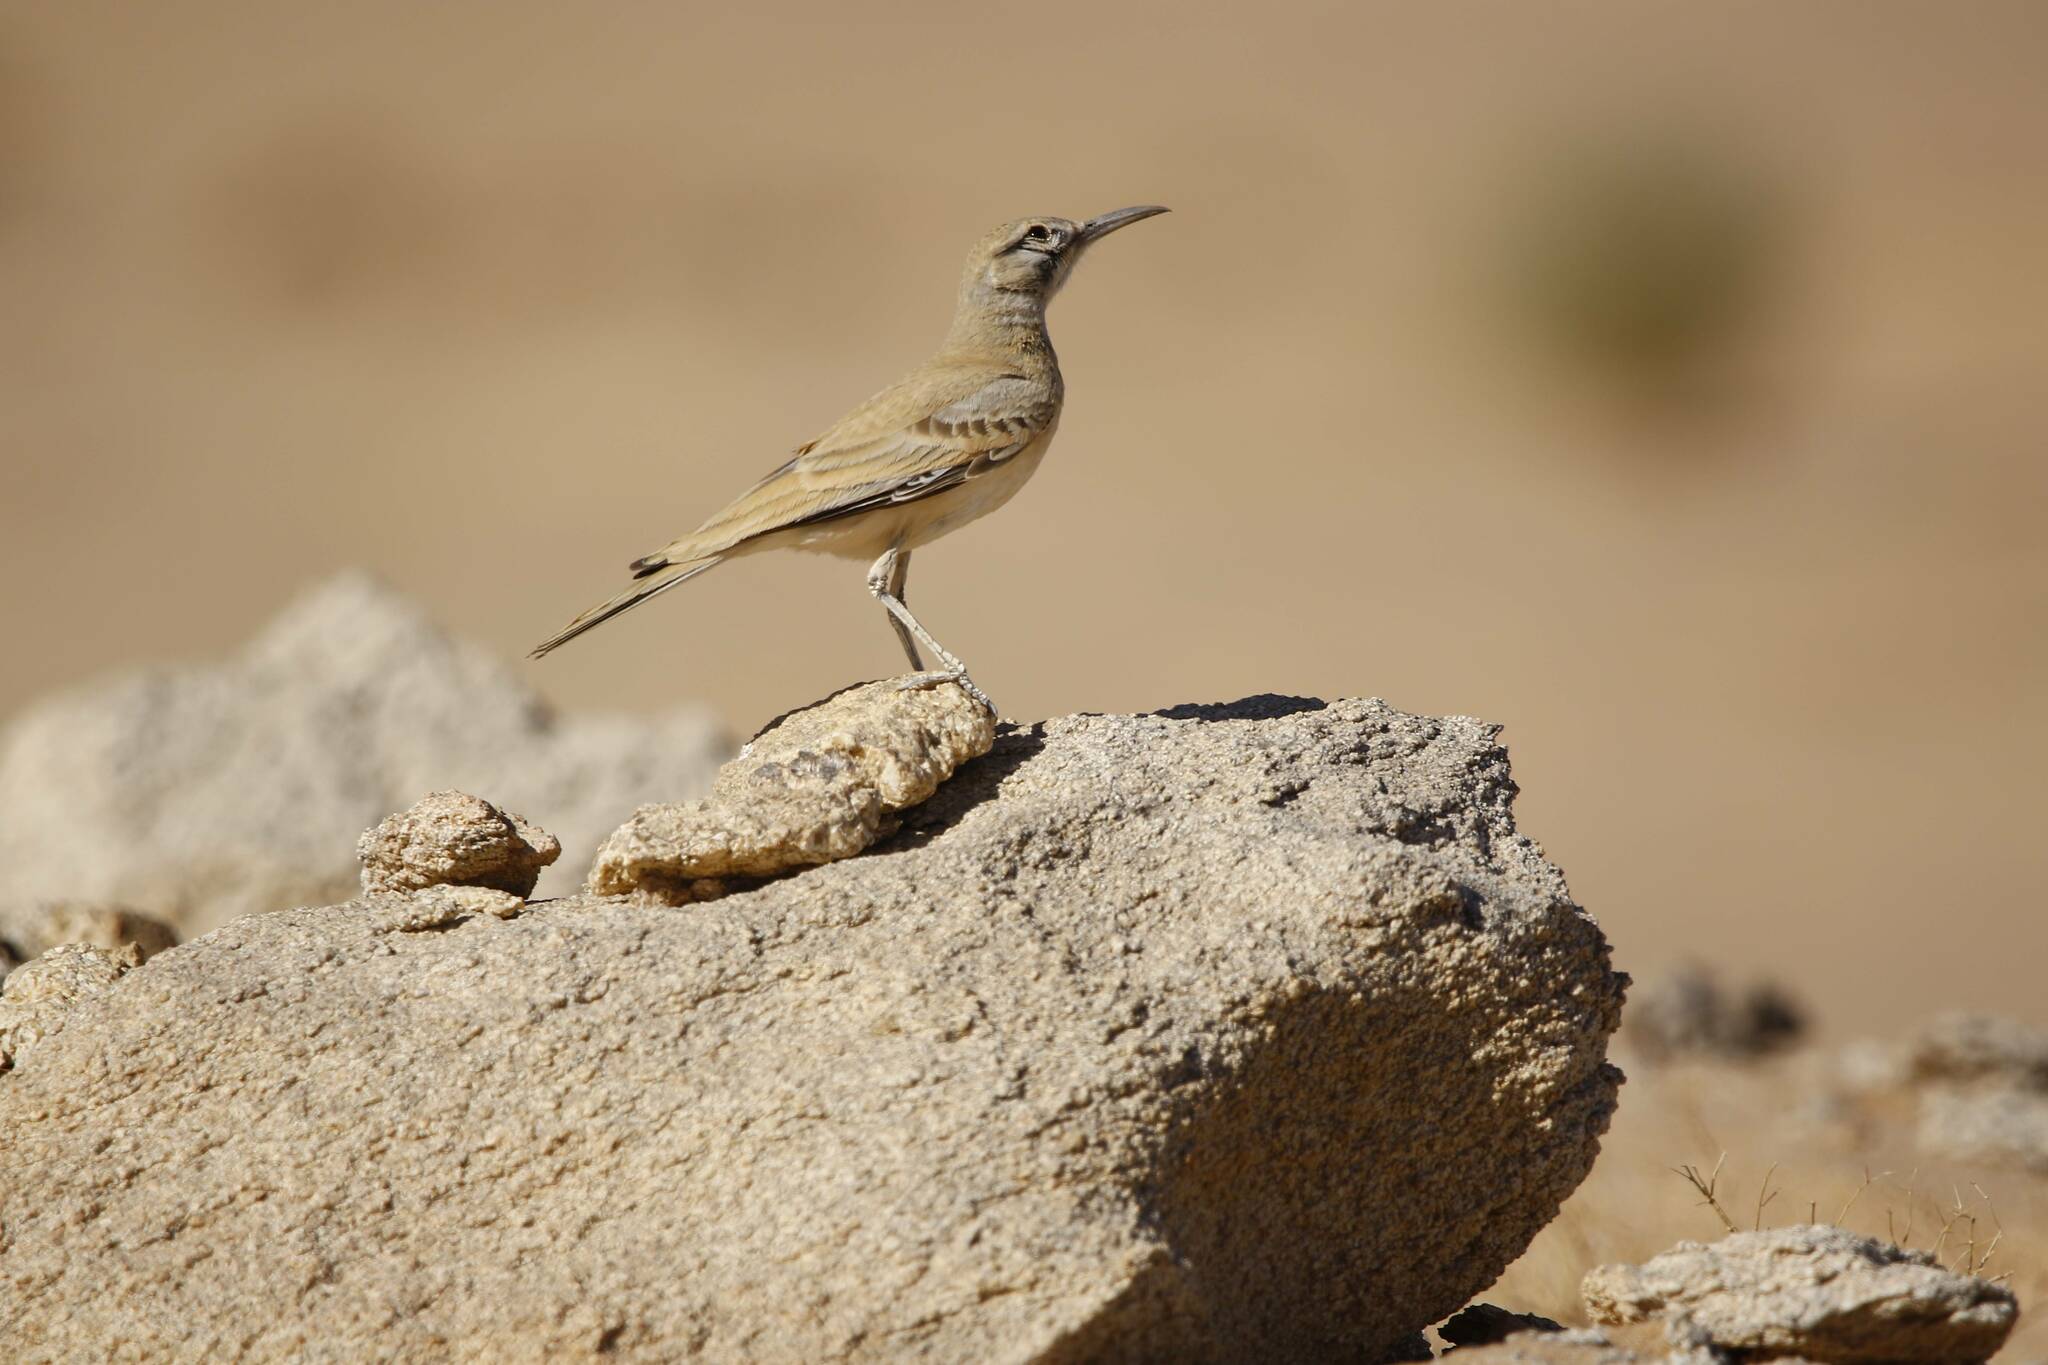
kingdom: Animalia
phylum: Chordata
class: Aves
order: Passeriformes
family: Alaudidae
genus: Alaemon
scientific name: Alaemon alaudipes
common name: Greater hoopoe-lark
